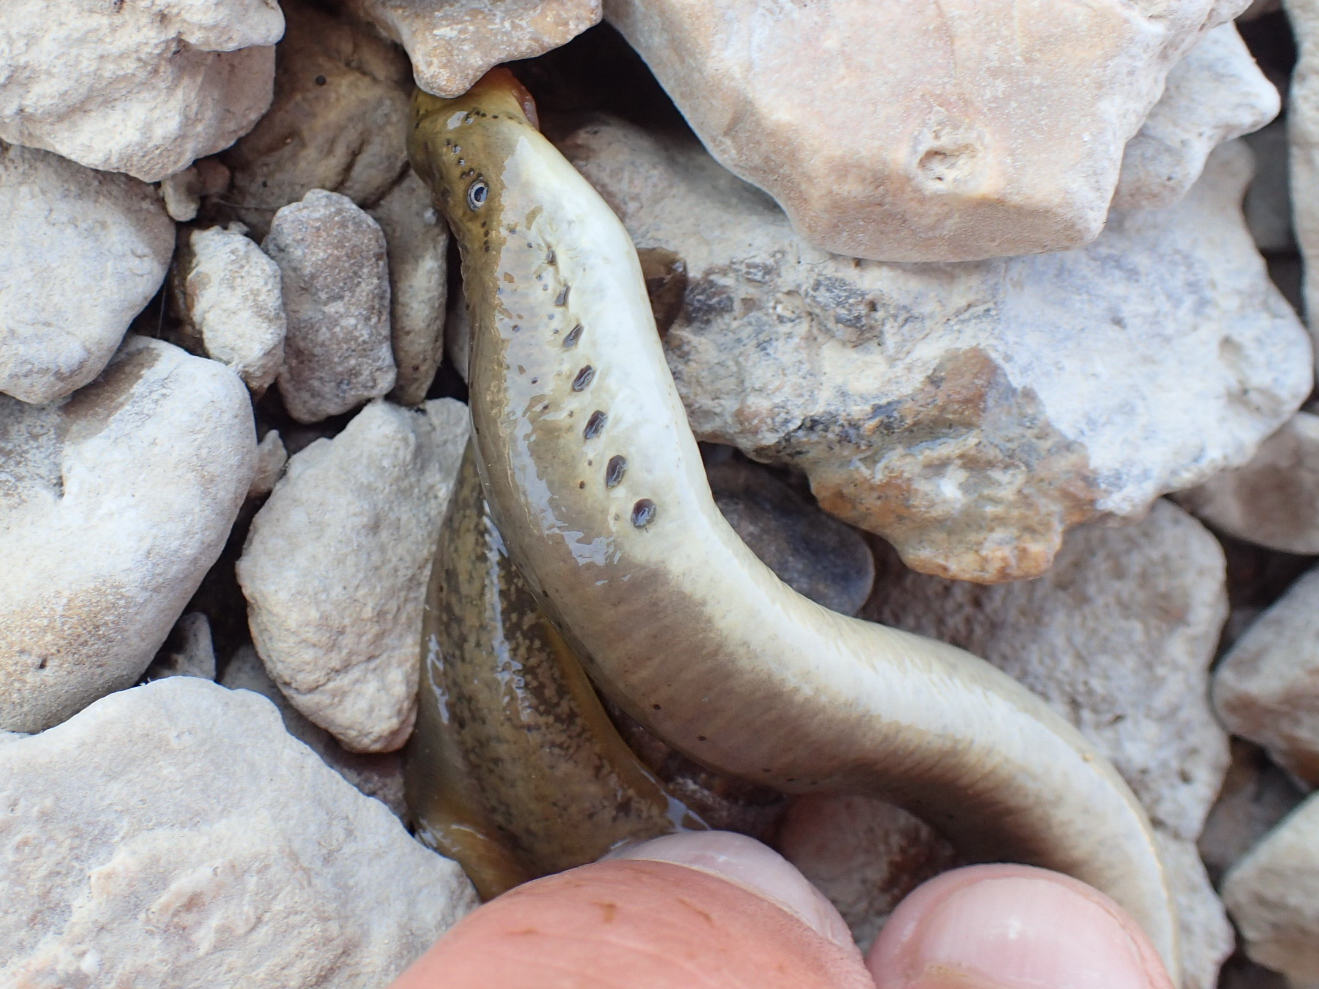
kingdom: Animalia
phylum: Chordata
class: Petromyzonti
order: Petromyzontiformes
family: Petromyzontidae
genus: Ichthyomyzon
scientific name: Ichthyomyzon bdellium
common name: Ohio lamprey
